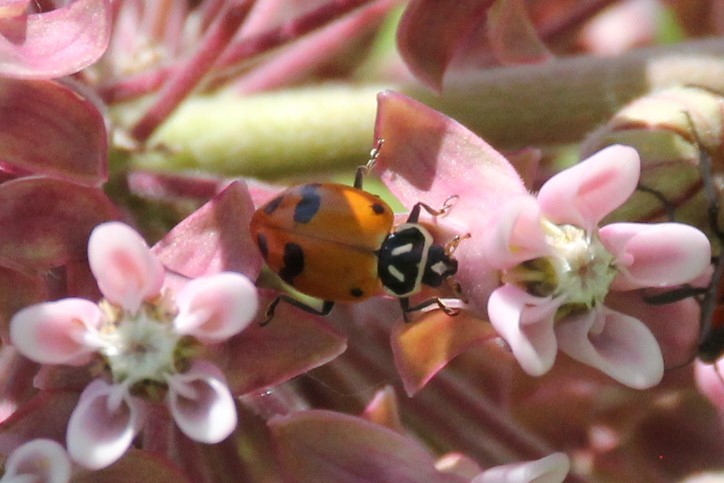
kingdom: Animalia
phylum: Arthropoda
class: Insecta
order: Coleoptera
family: Coccinellidae
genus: Hippodamia
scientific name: Hippodamia glacialis
